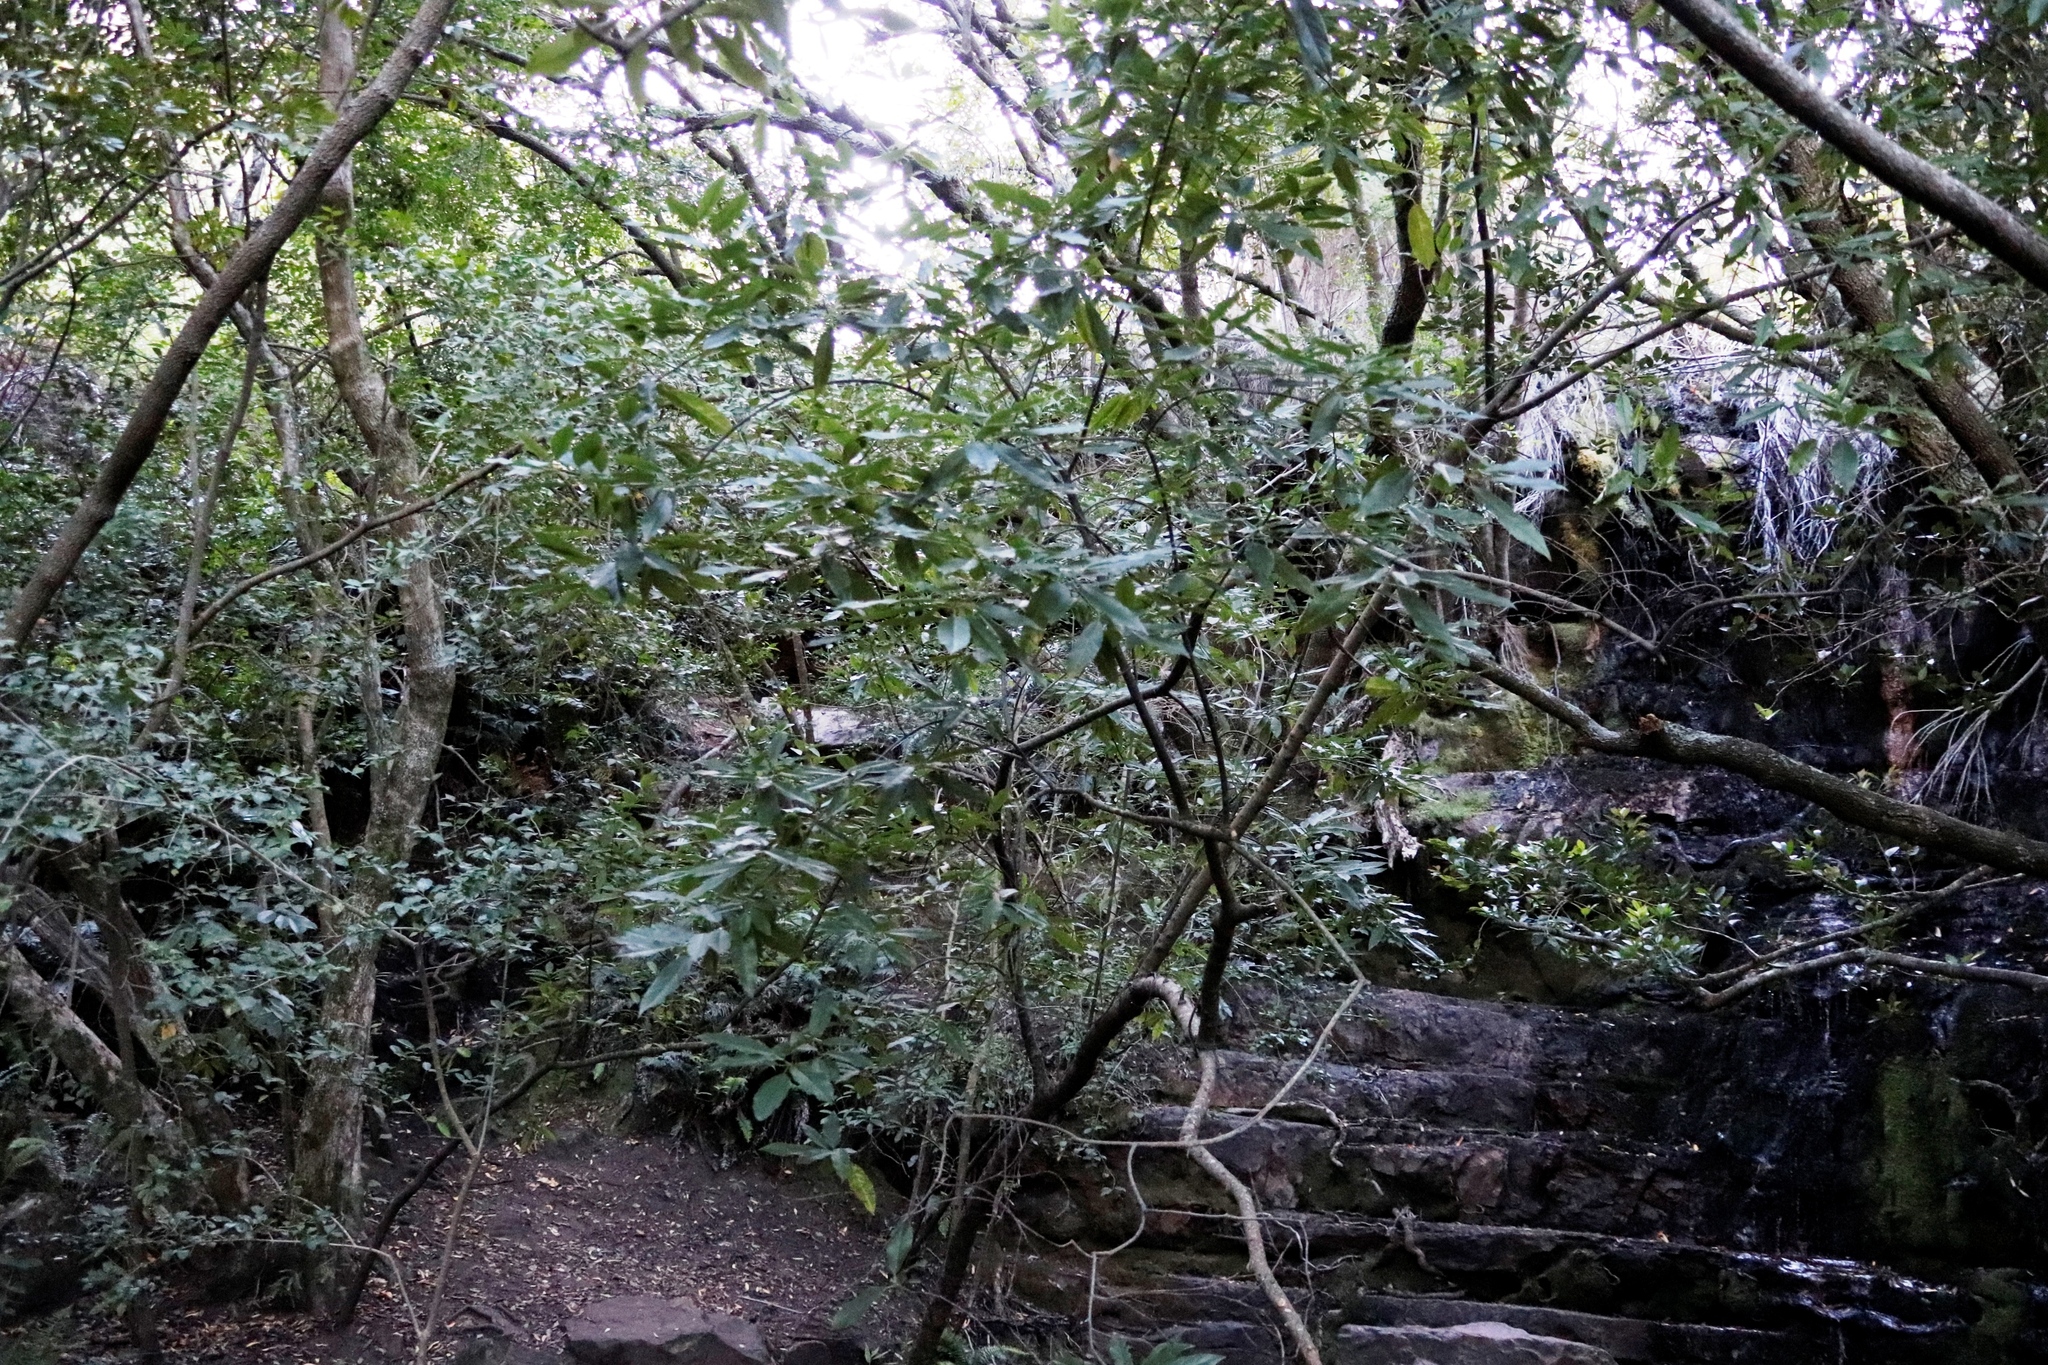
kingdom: Plantae
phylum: Tracheophyta
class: Magnoliopsida
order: Malpighiales
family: Achariaceae
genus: Kiggelaria
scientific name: Kiggelaria africana
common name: Wild peach
